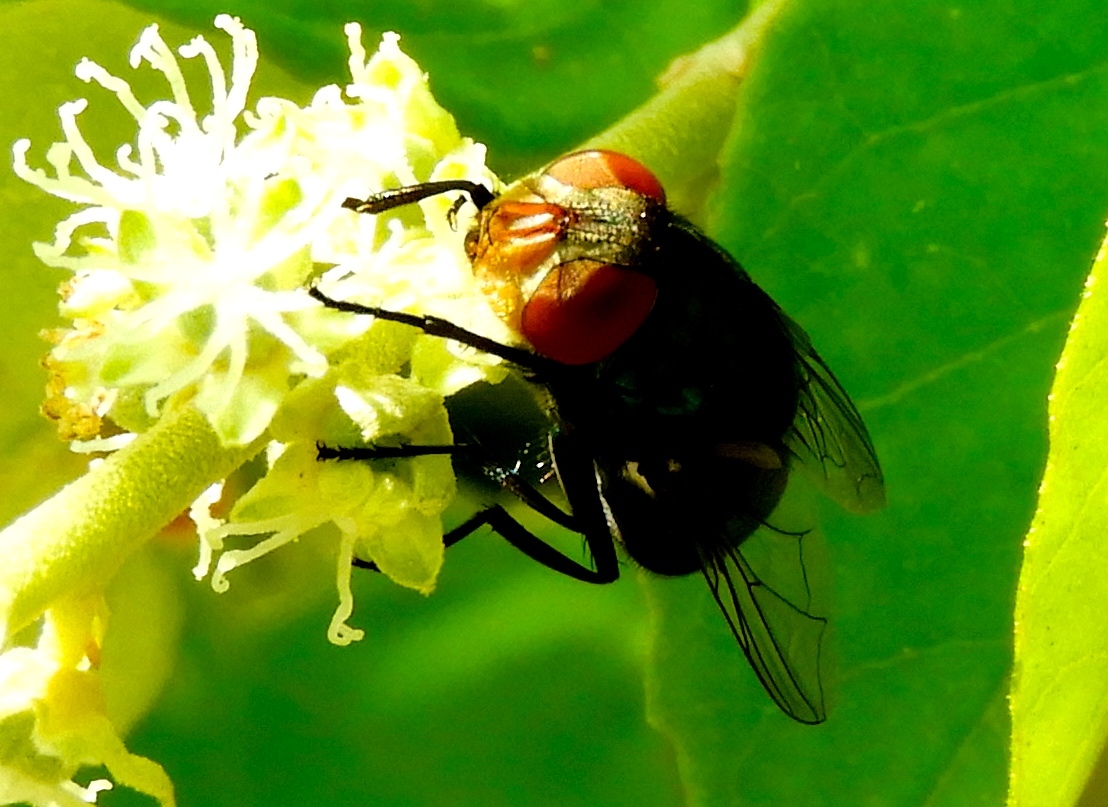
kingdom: Animalia
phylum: Arthropoda
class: Insecta
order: Diptera
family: Calliphoridae
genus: Chrysomya
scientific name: Chrysomya
